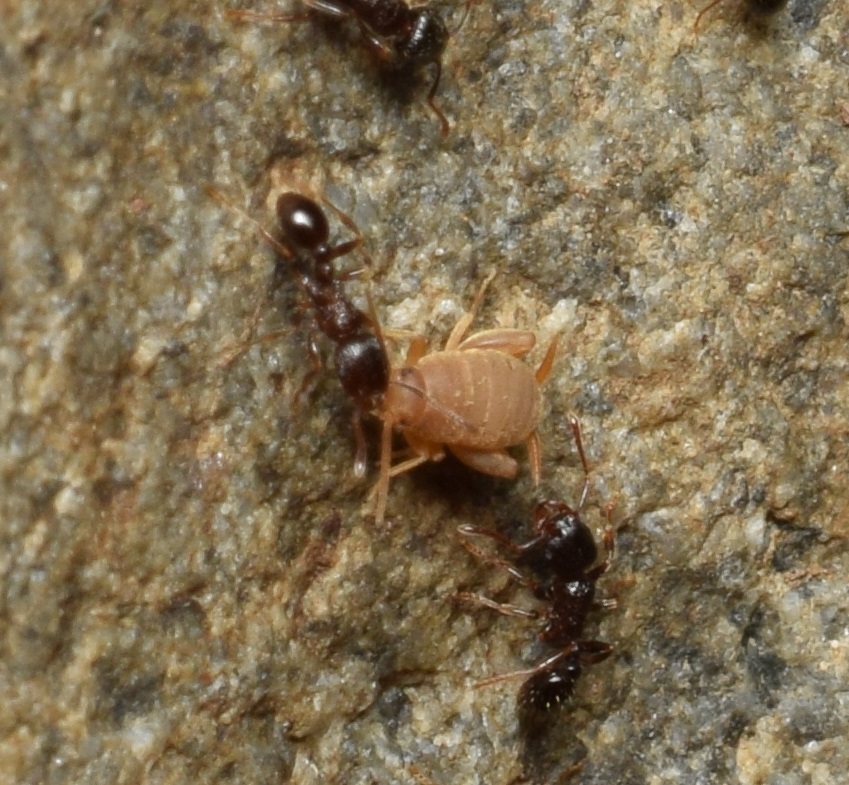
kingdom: Animalia
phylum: Arthropoda
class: Insecta
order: Orthoptera
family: Myrmecophilidae
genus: Myrmecophilus
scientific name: Myrmecophilus kubotai
